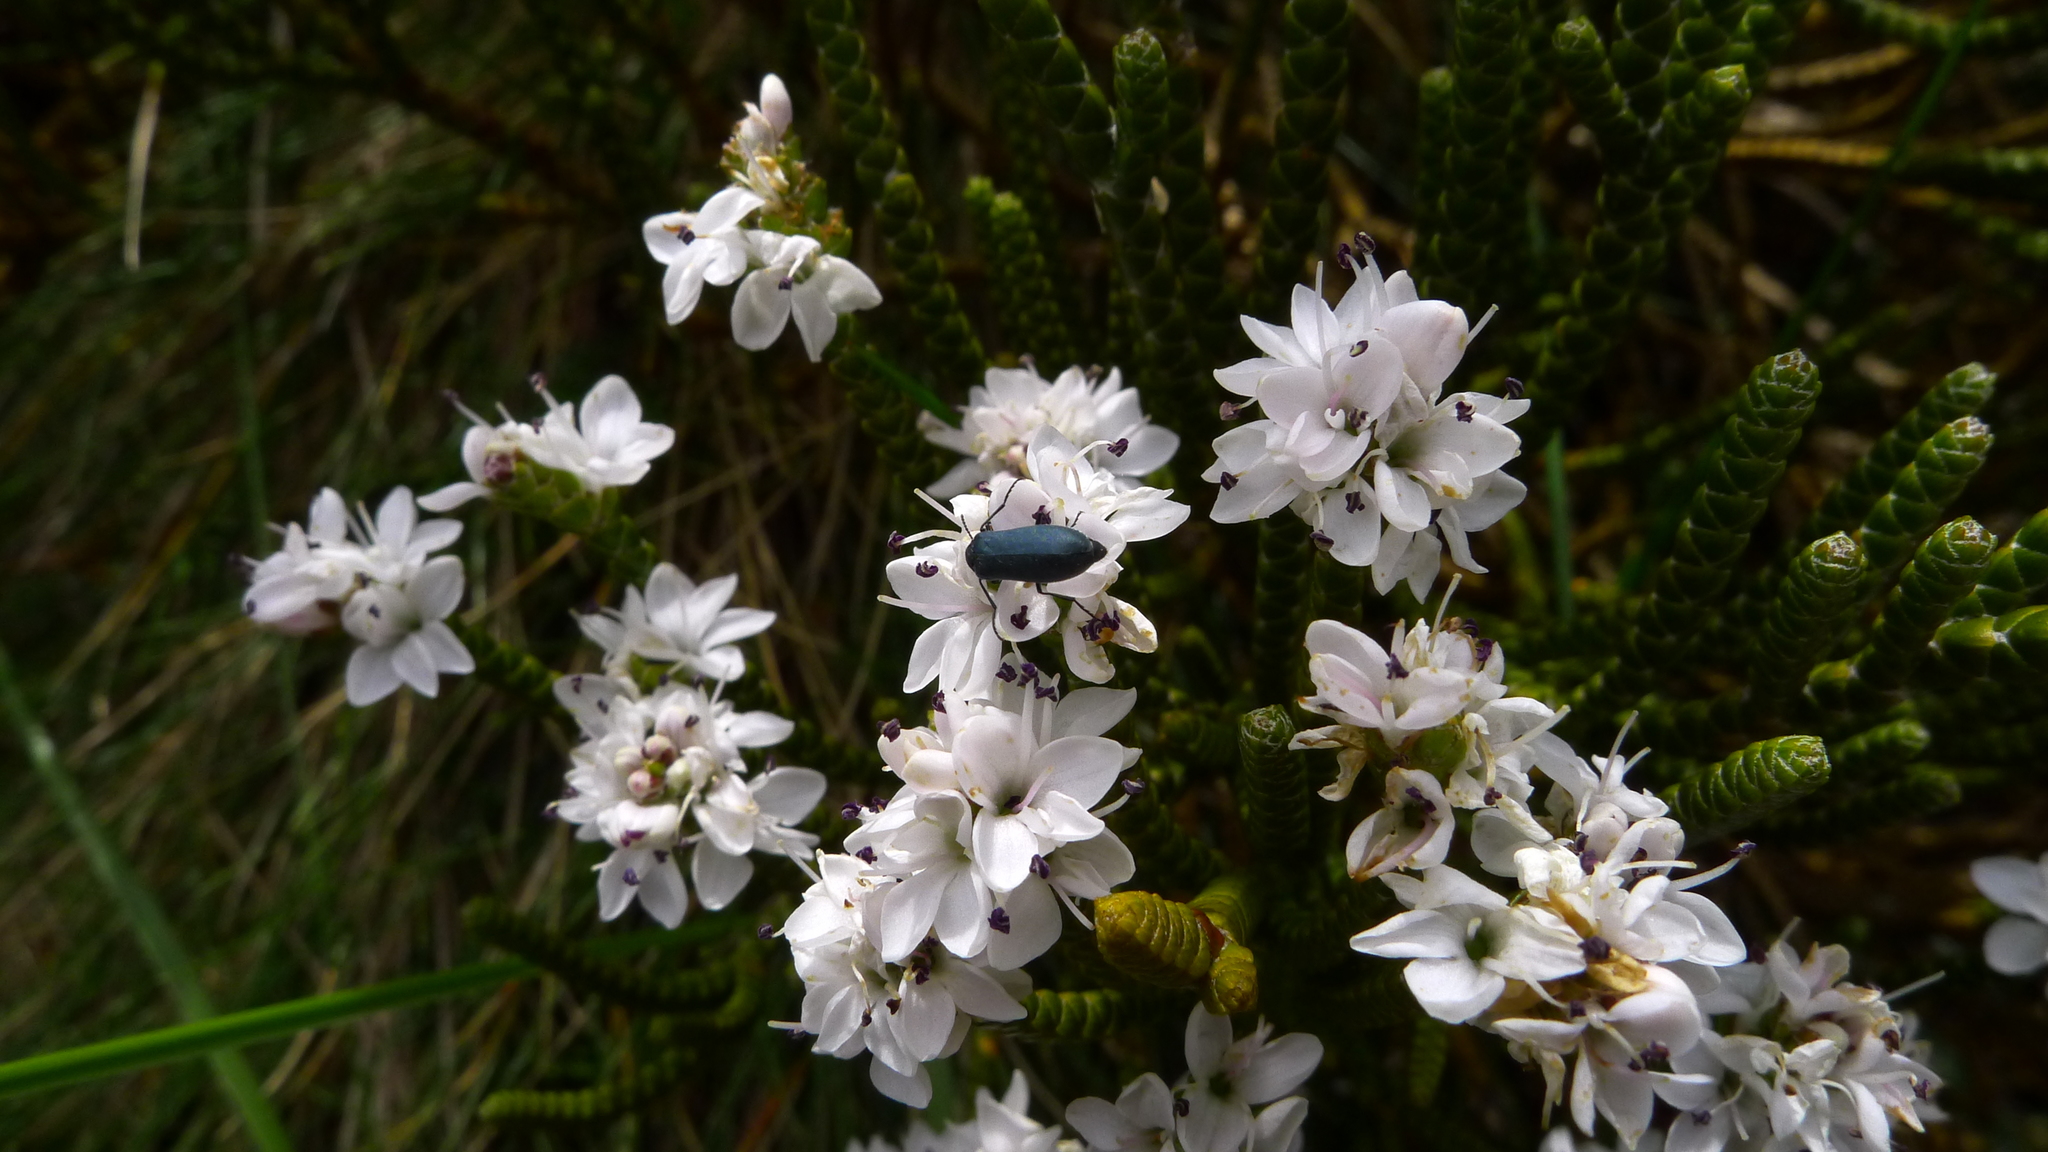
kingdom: Plantae
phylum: Tracheophyta
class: Magnoliopsida
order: Lamiales
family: Plantaginaceae
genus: Veronica
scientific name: Veronica hectorii
